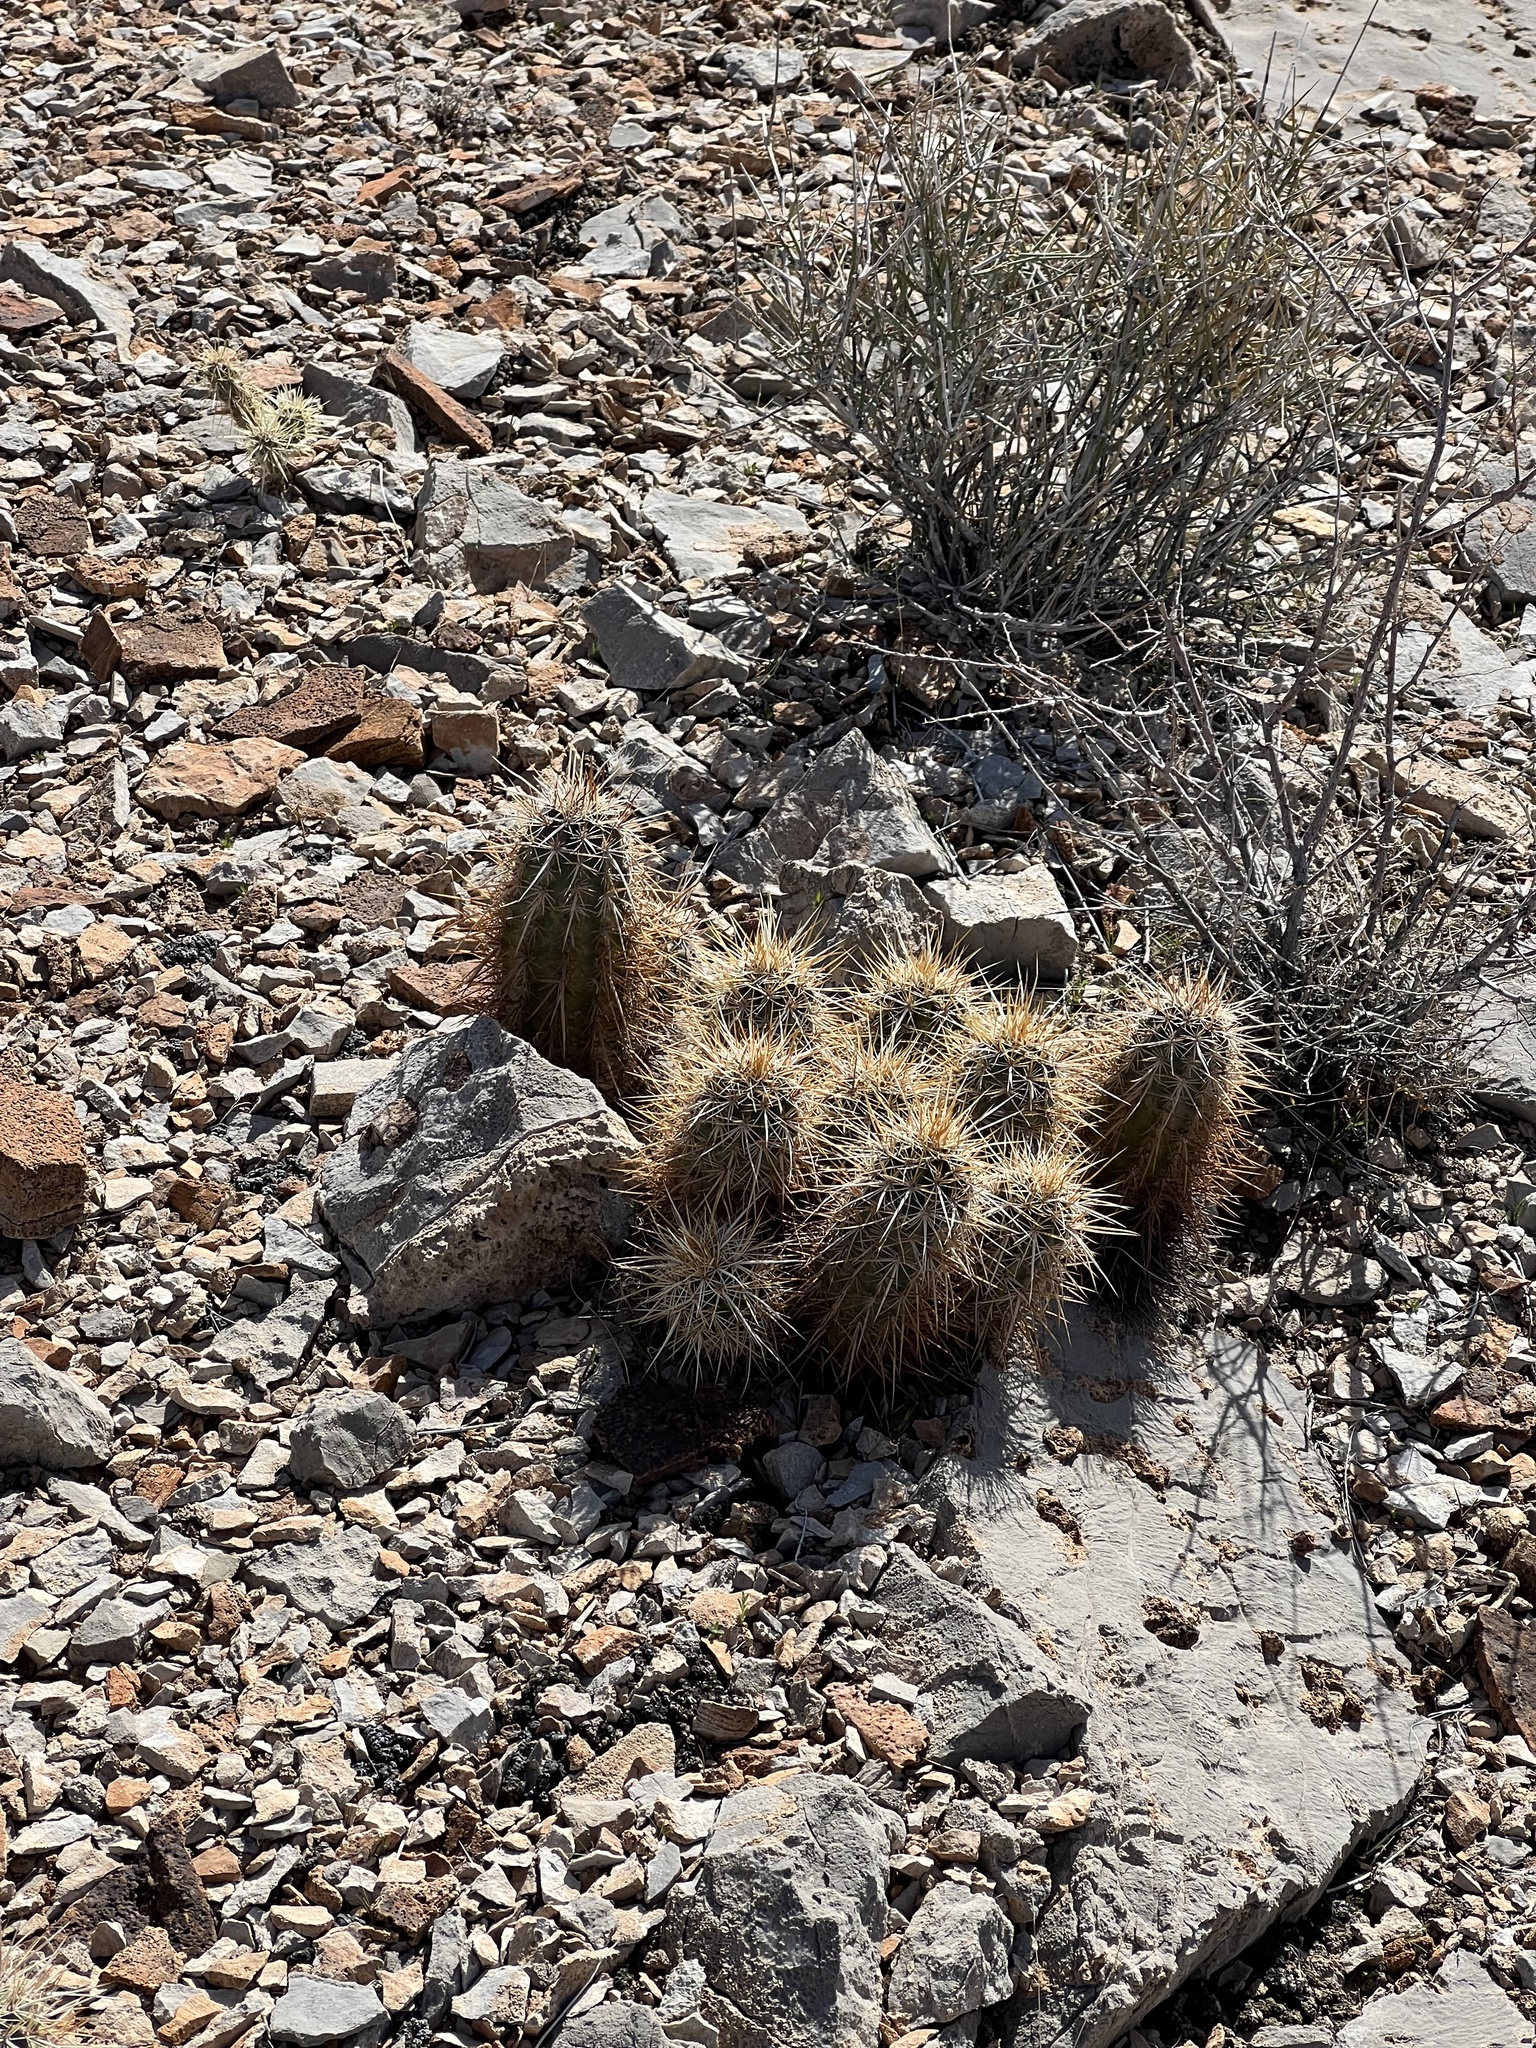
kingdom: Plantae
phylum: Tracheophyta
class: Magnoliopsida
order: Caryophyllales
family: Cactaceae
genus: Echinocereus
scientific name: Echinocereus engelmannii
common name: Engelmann's hedgehog cactus
